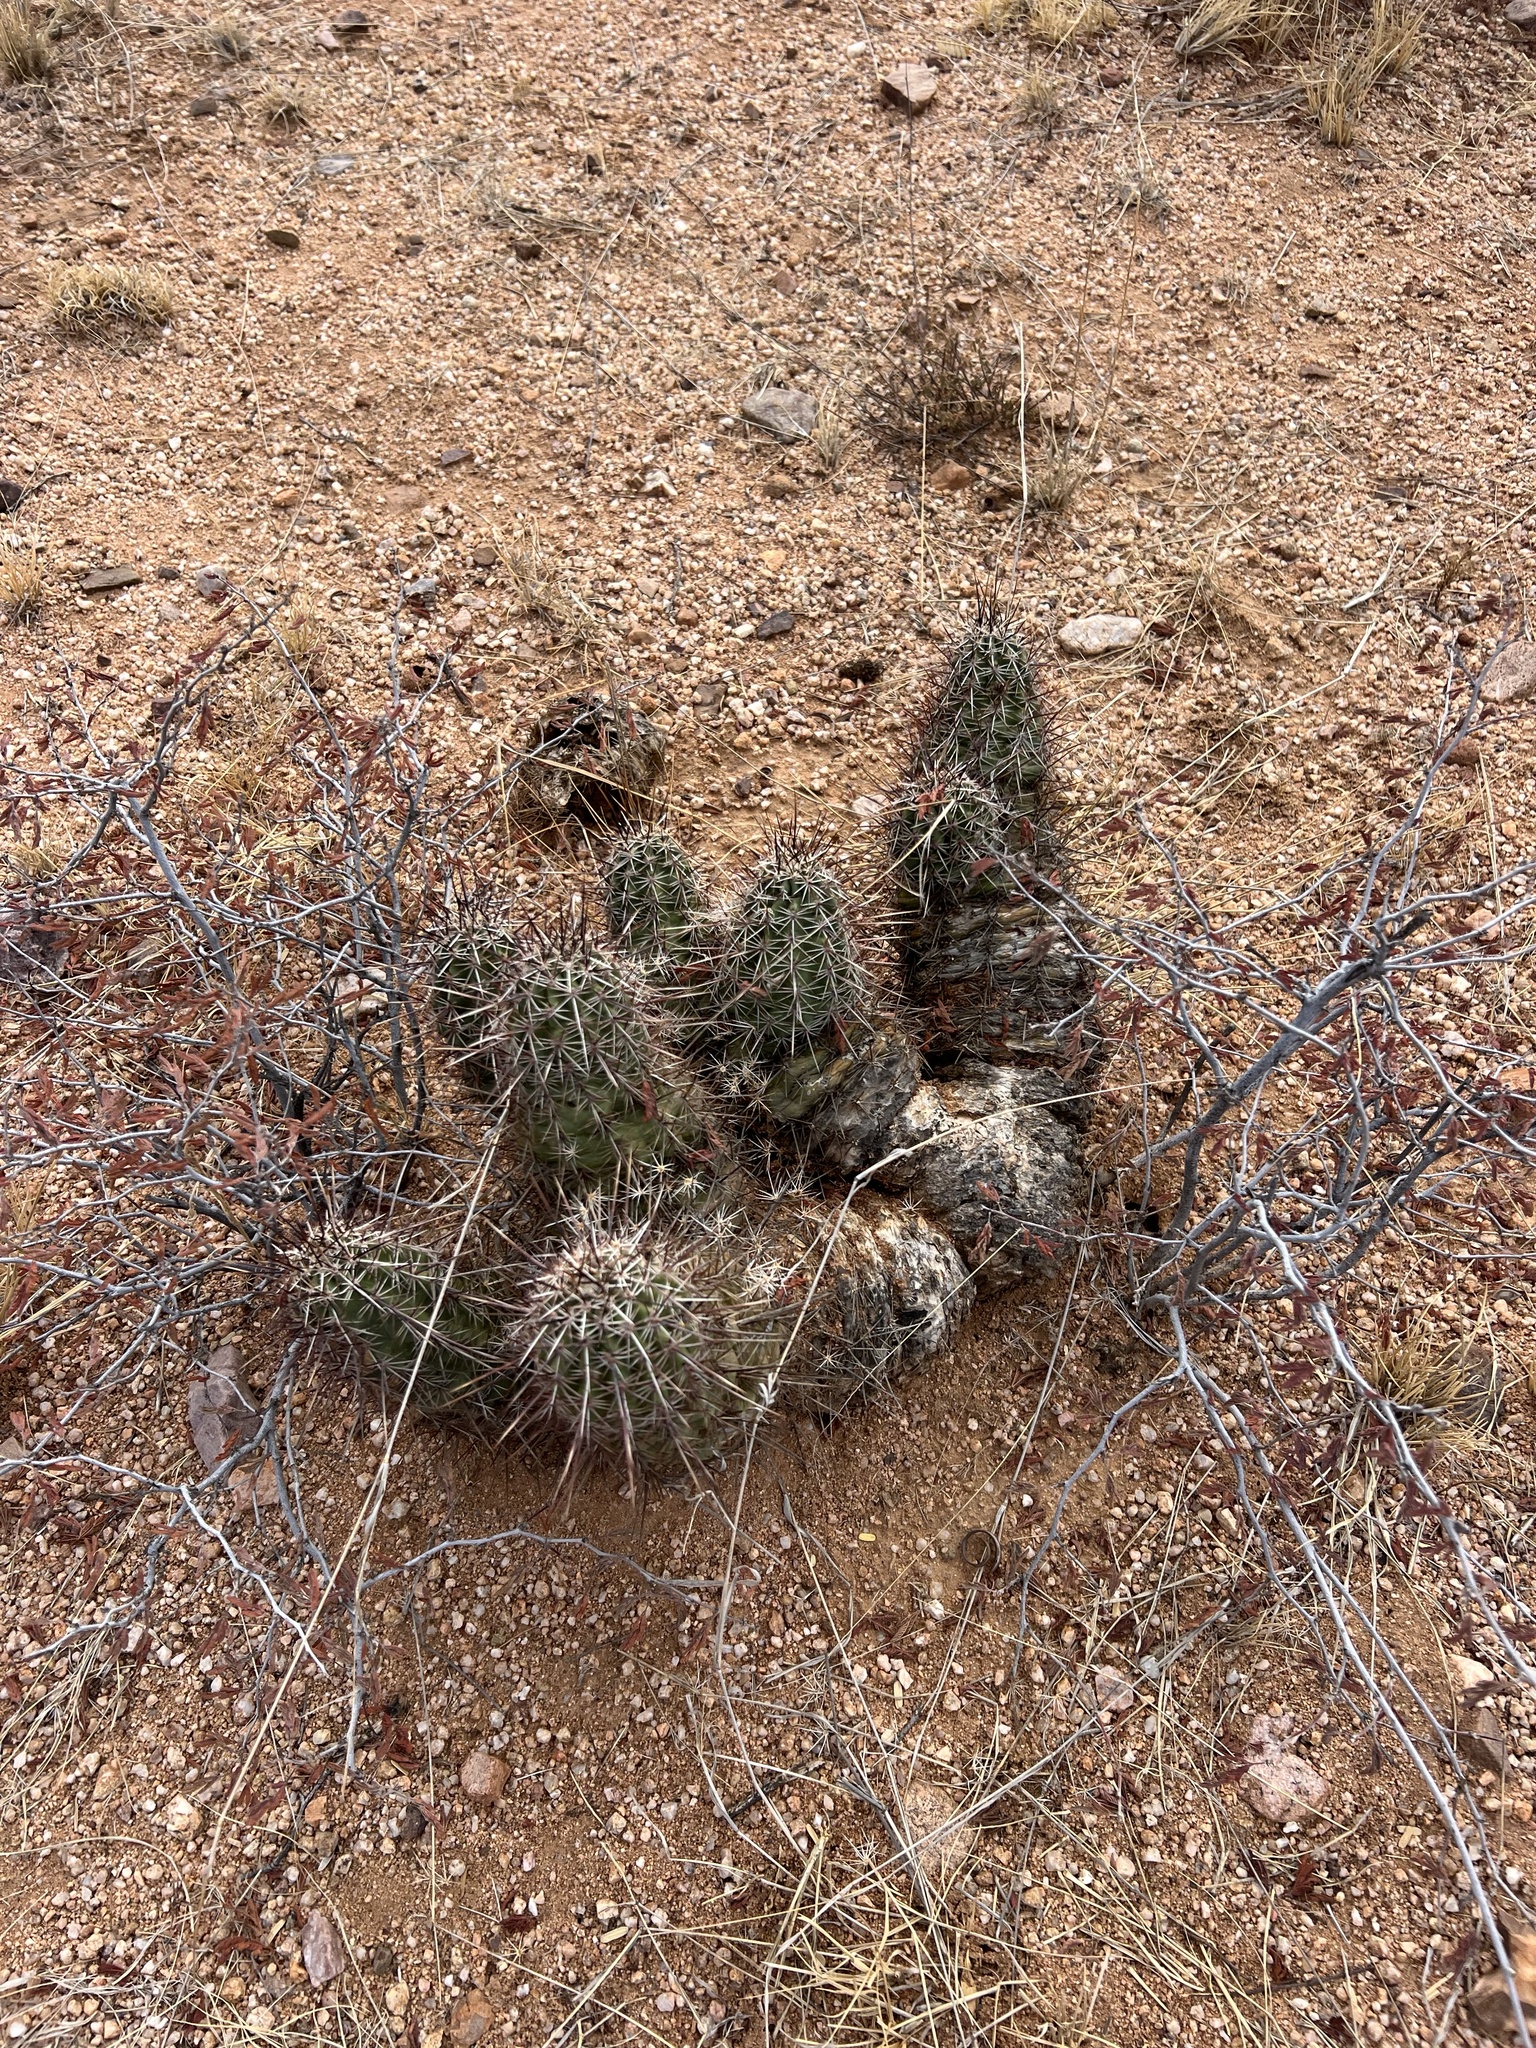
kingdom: Plantae
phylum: Tracheophyta
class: Magnoliopsida
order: Caryophyllales
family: Cactaceae
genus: Echinocereus
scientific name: Echinocereus fasciculatus
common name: Bundle hedgehog
